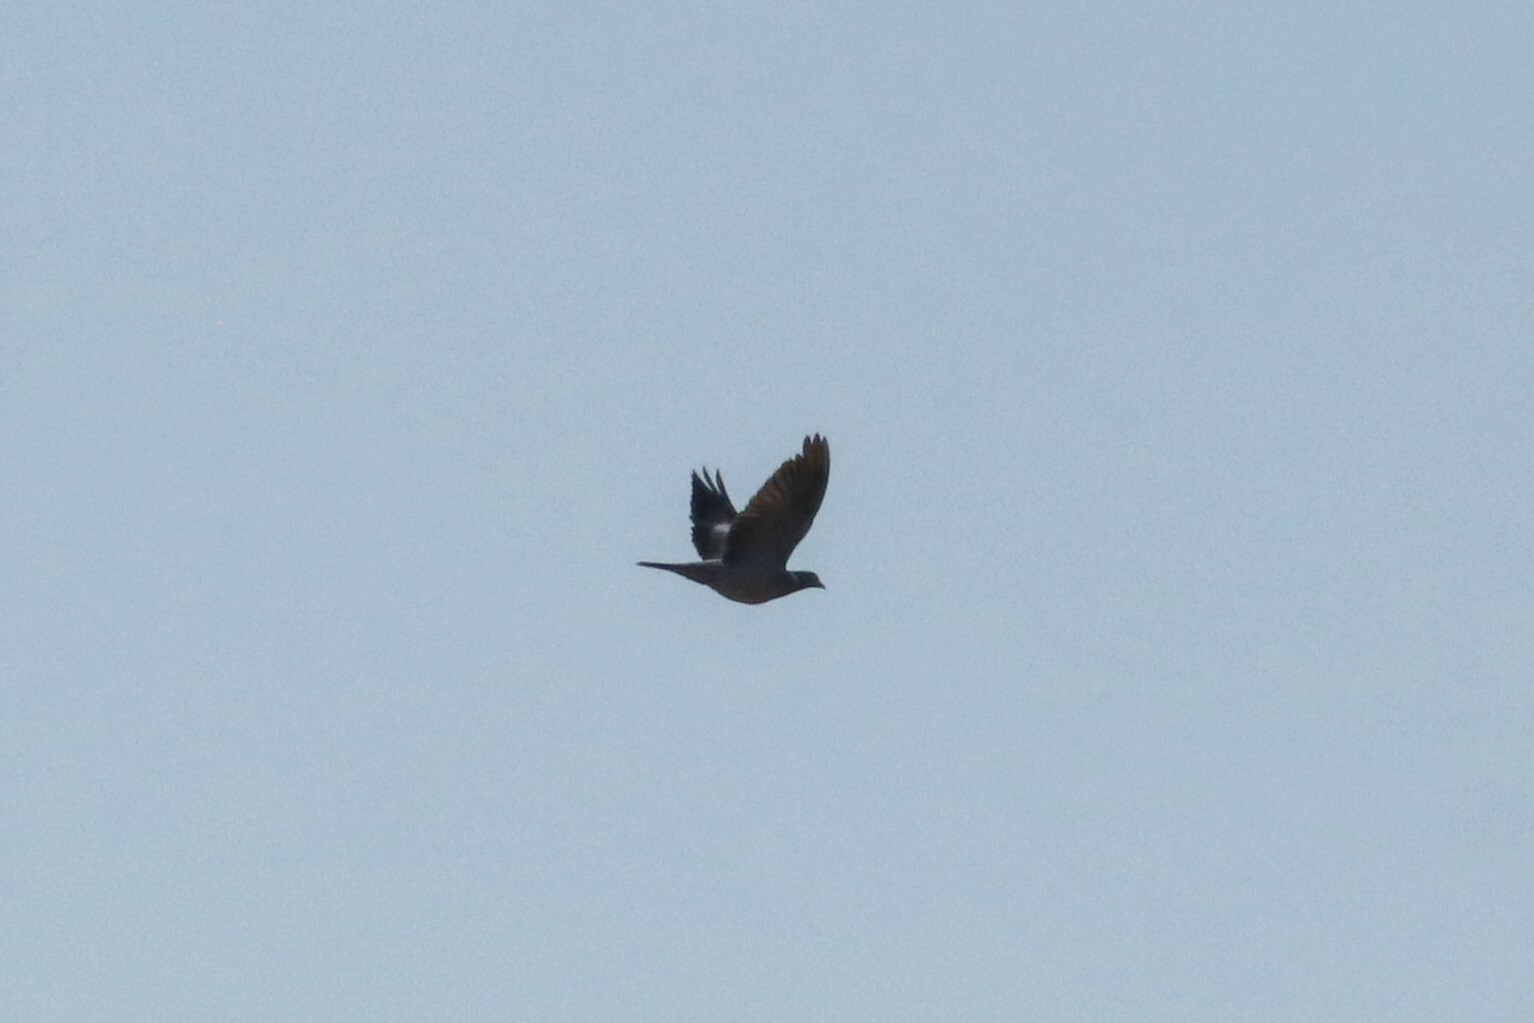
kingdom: Animalia
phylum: Chordata
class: Aves
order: Columbiformes
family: Columbidae
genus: Columba
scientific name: Columba palumbus
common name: Common wood pigeon
